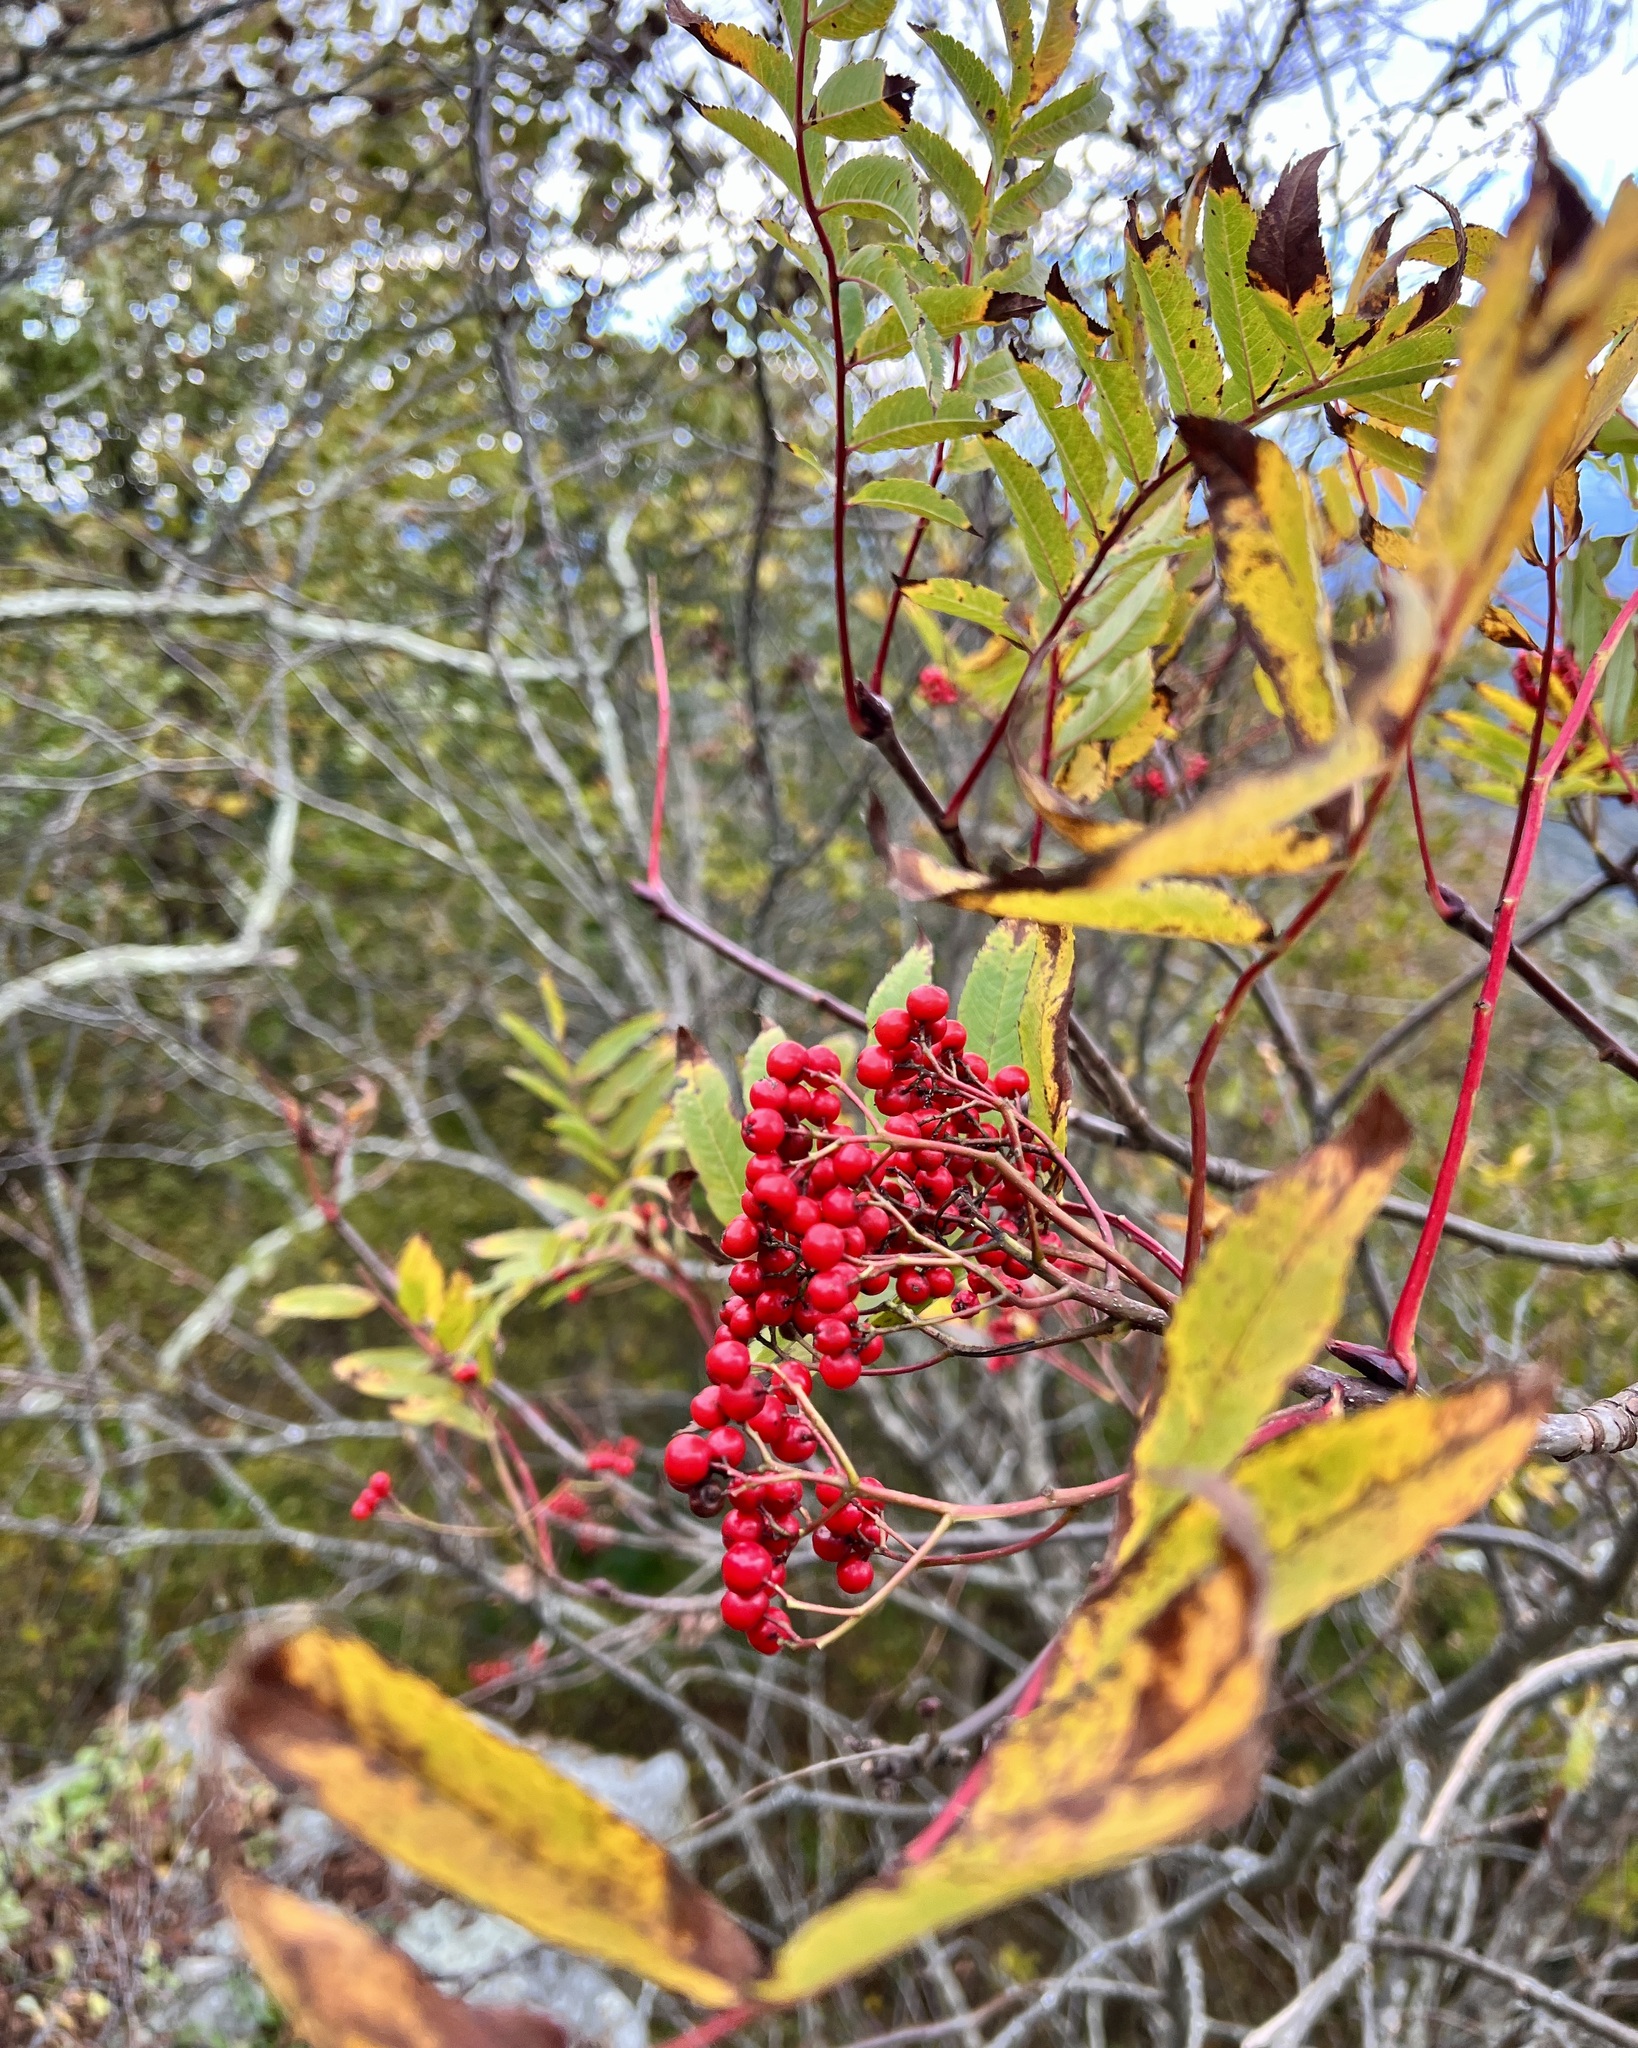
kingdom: Plantae
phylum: Tracheophyta
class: Magnoliopsida
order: Rosales
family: Rosaceae
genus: Sorbus
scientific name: Sorbus americana
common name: American mountain-ash
